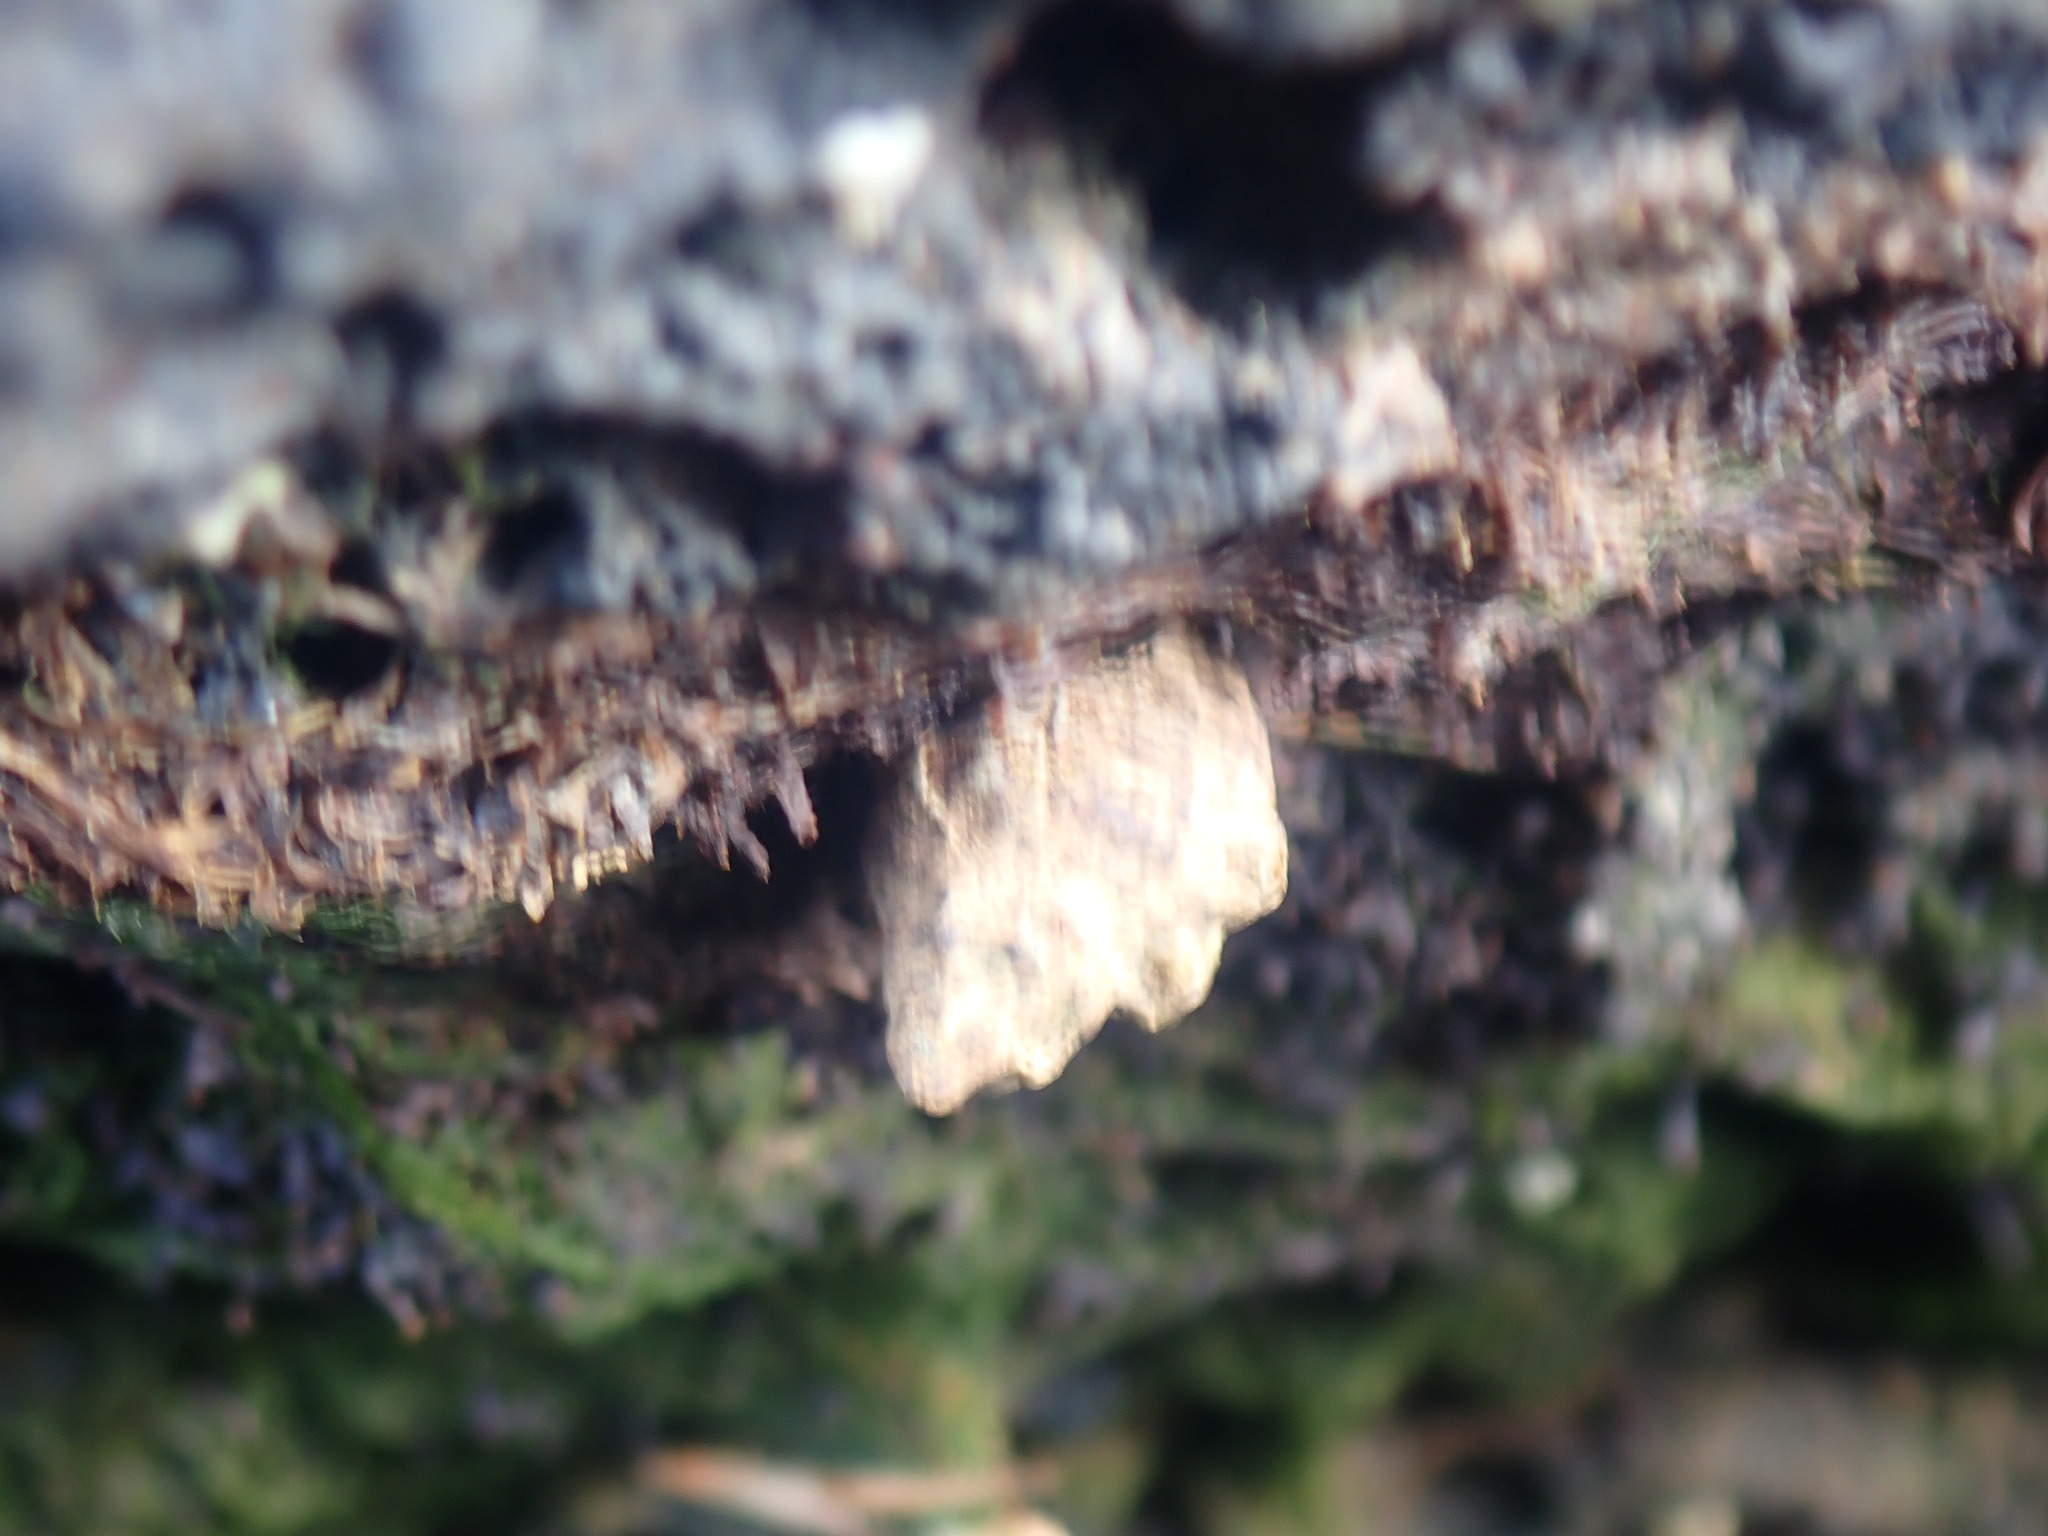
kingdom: Animalia
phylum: Mollusca
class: Gastropoda
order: Neogastropoda
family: Muricidae
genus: Haustrum
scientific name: Haustrum albomarginatum
